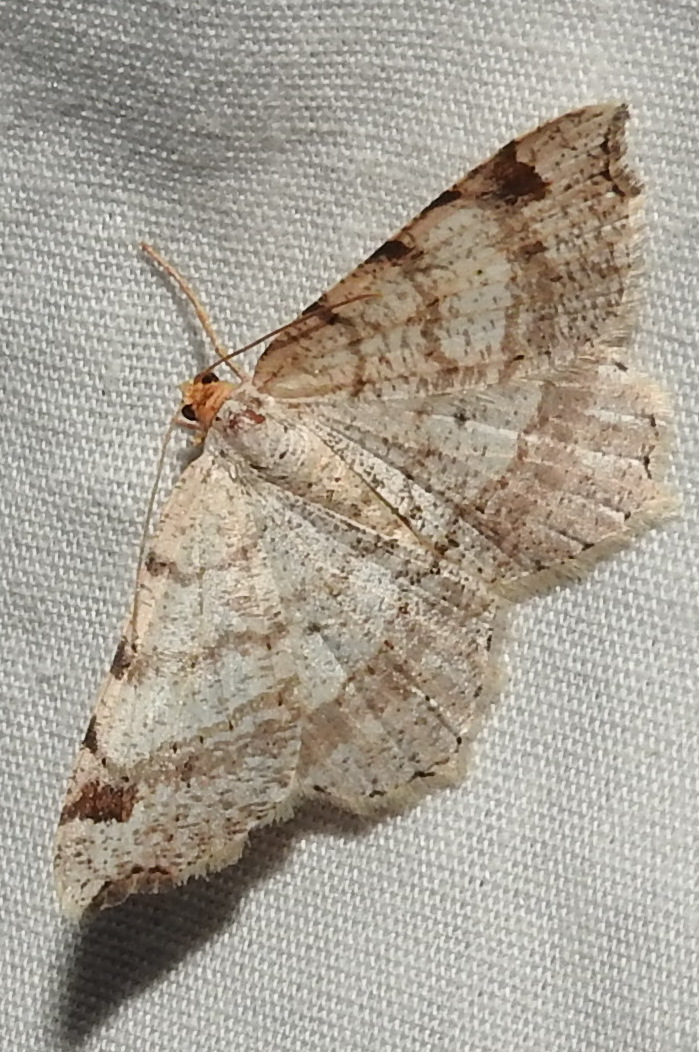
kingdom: Animalia
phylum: Arthropoda
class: Insecta
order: Lepidoptera
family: Geometridae
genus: Macaria
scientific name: Macaria bisignata
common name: Red-headed inchworm
